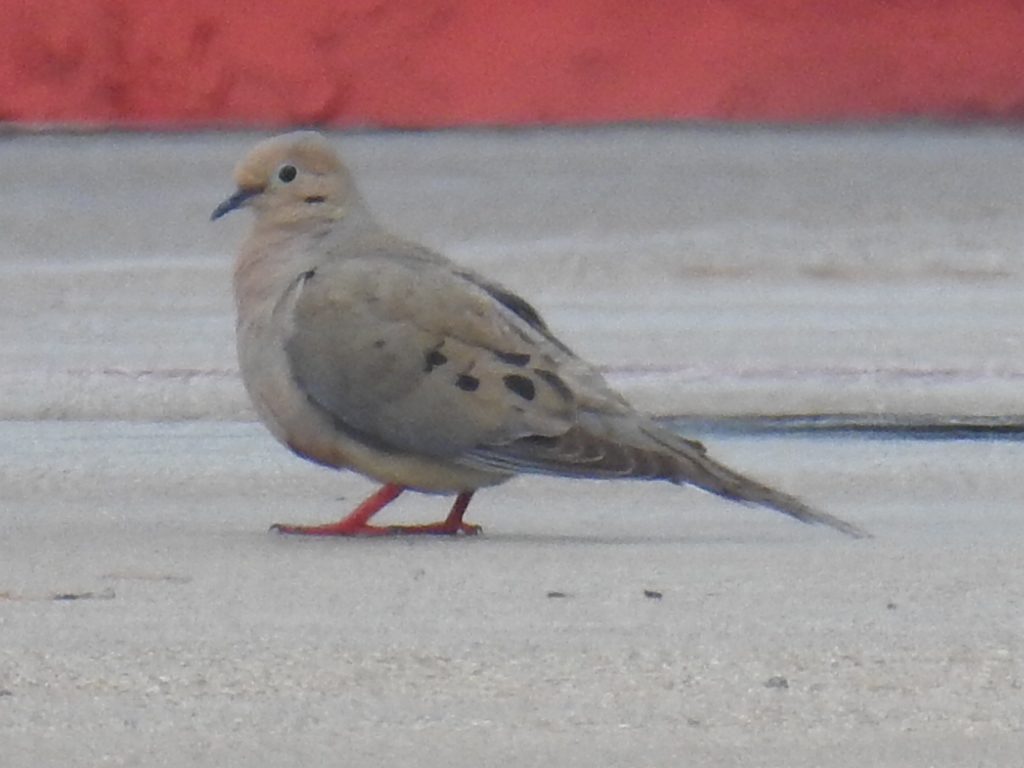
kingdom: Animalia
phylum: Chordata
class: Aves
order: Columbiformes
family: Columbidae
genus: Zenaida
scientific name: Zenaida macroura
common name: Mourning dove
